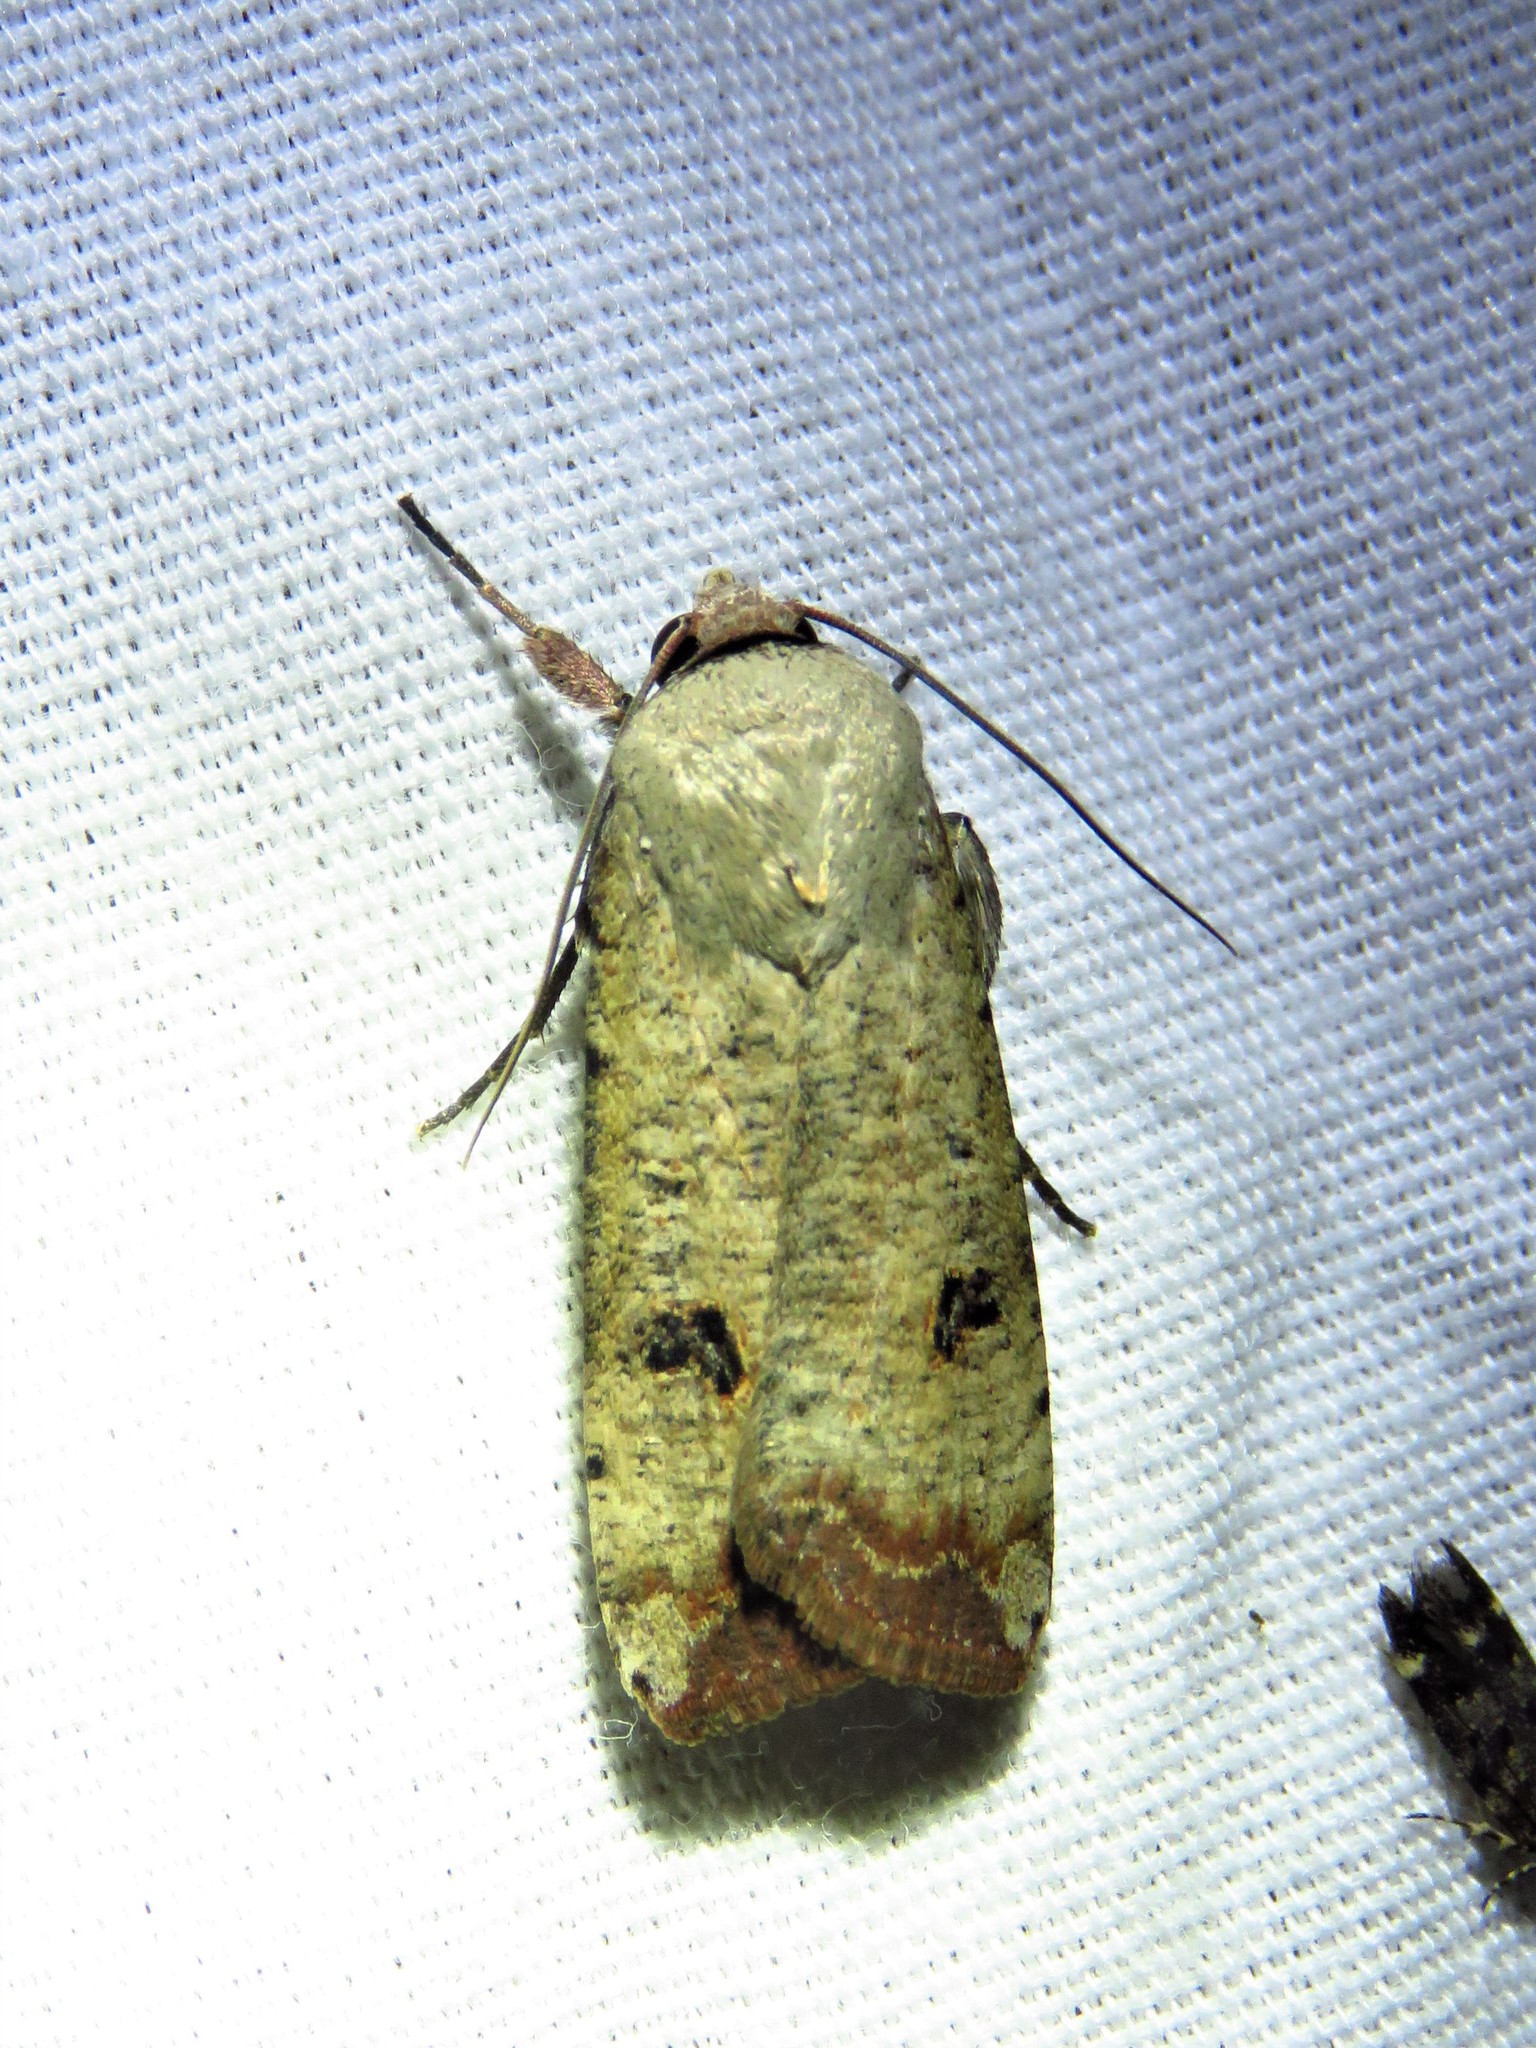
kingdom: Animalia
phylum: Arthropoda
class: Insecta
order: Lepidoptera
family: Noctuidae
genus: Anicla
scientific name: Anicla infecta
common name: Green cutworm
